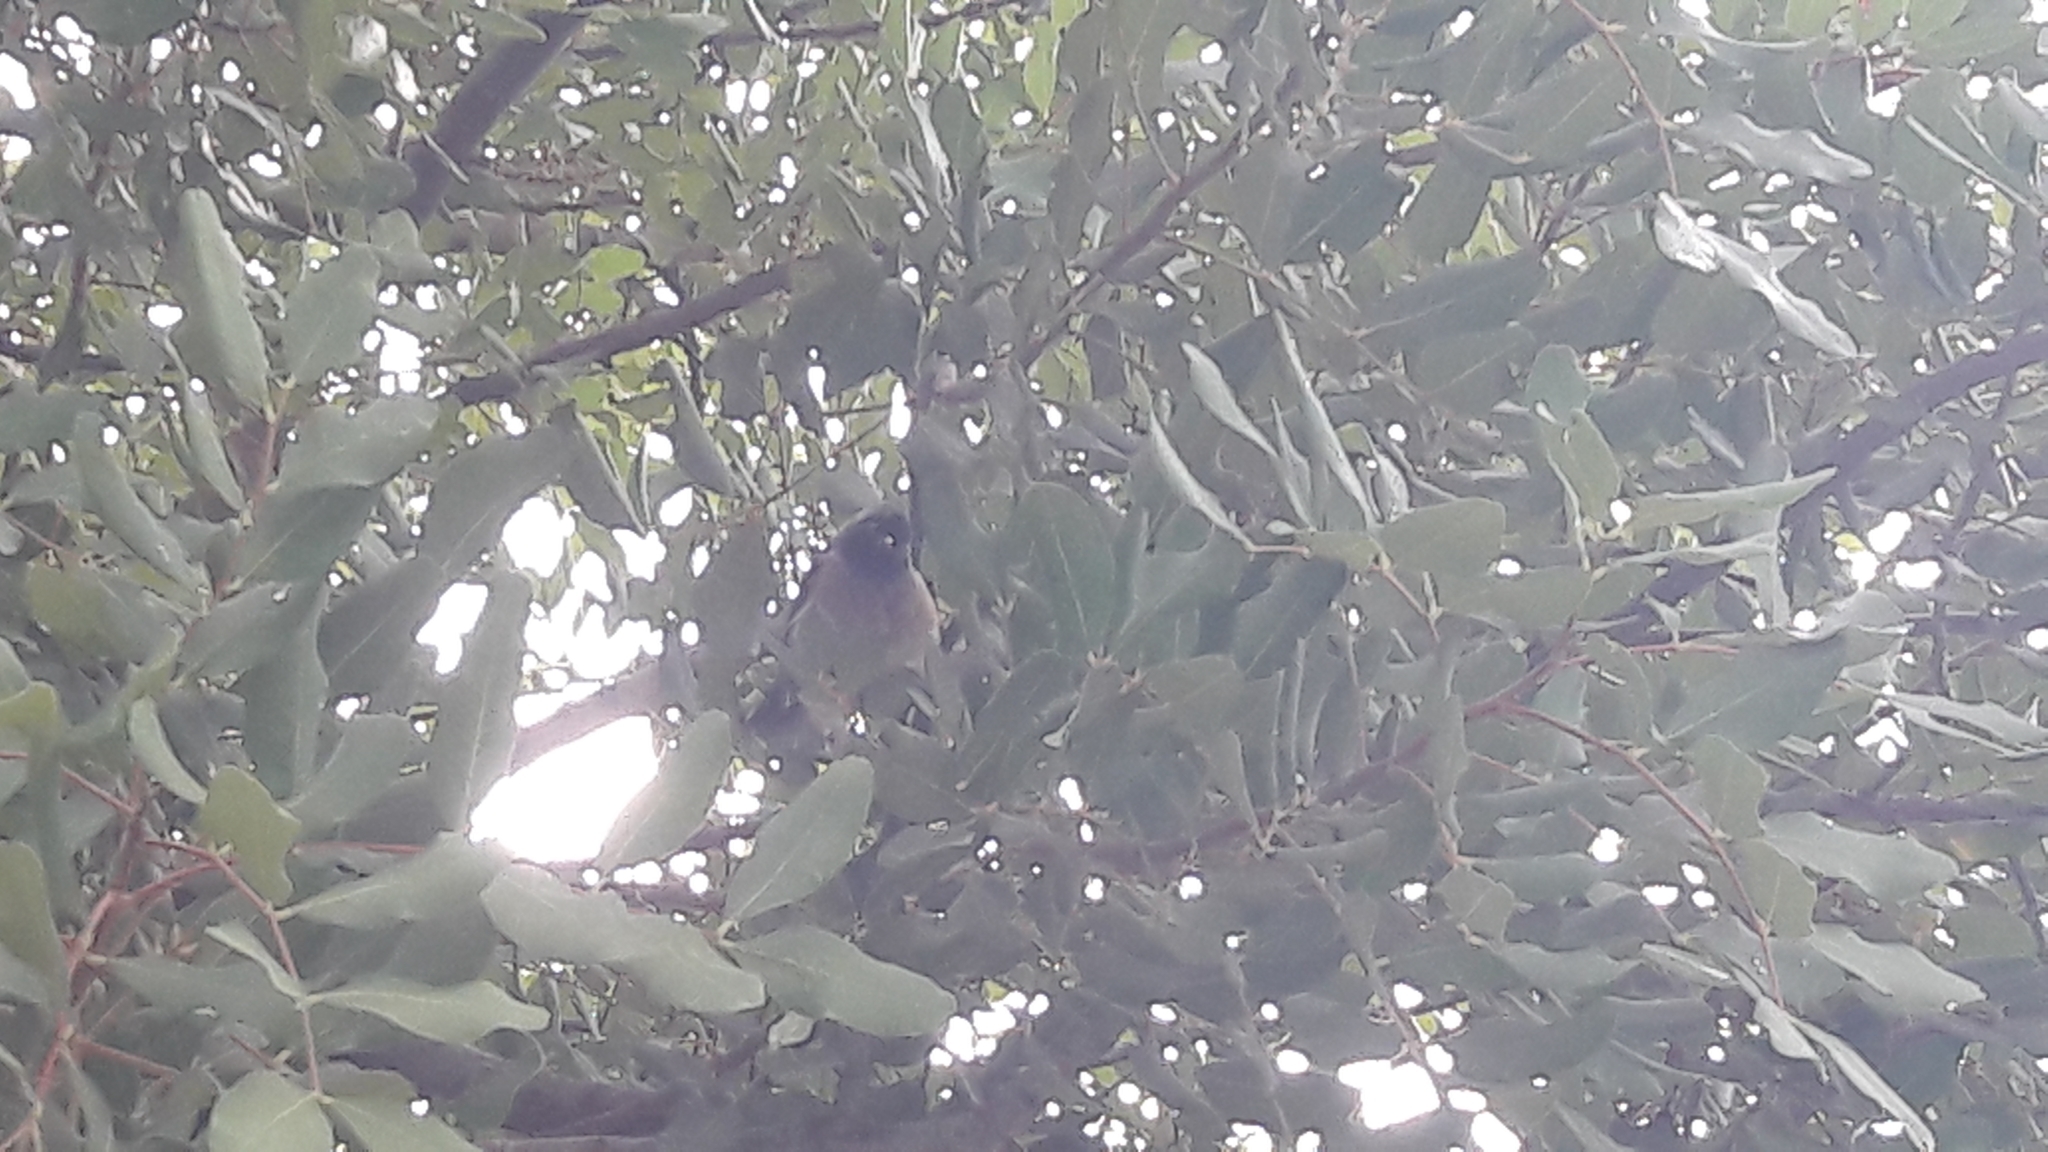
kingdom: Animalia
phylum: Chordata
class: Aves
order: Passeriformes
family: Pycnonotidae
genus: Pycnonotus
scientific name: Pycnonotus xanthopygos
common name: White-spectacled bulbul
